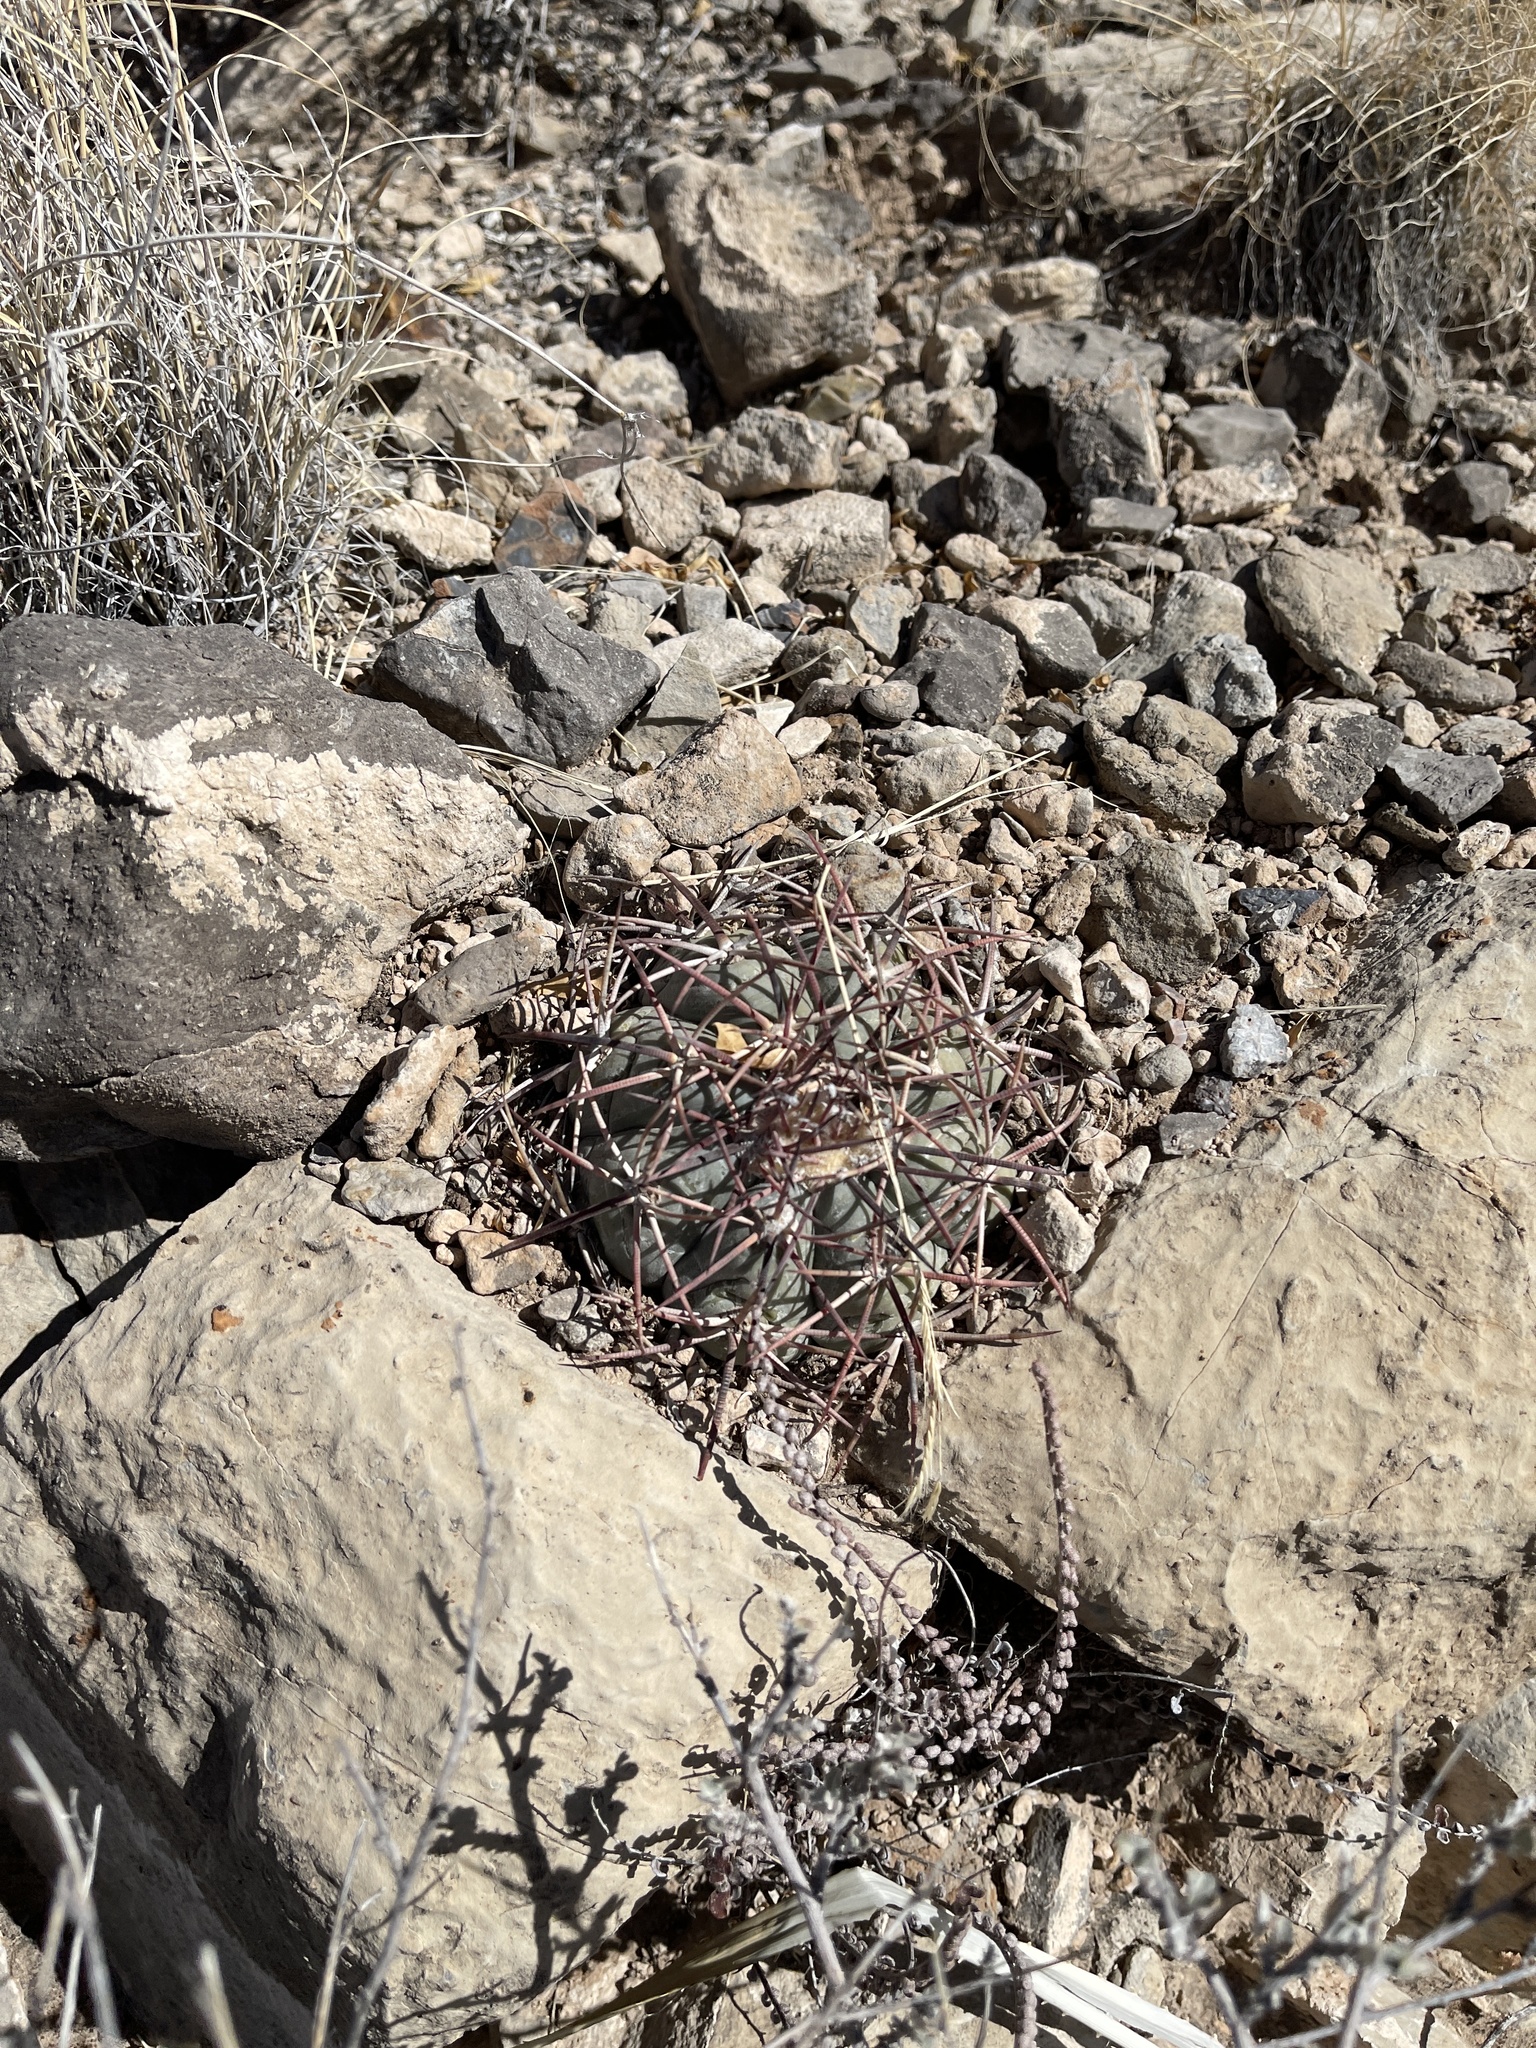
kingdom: Plantae
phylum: Tracheophyta
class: Magnoliopsida
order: Caryophyllales
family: Cactaceae
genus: Echinocactus
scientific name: Echinocactus horizonthalonius
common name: Devilshead
